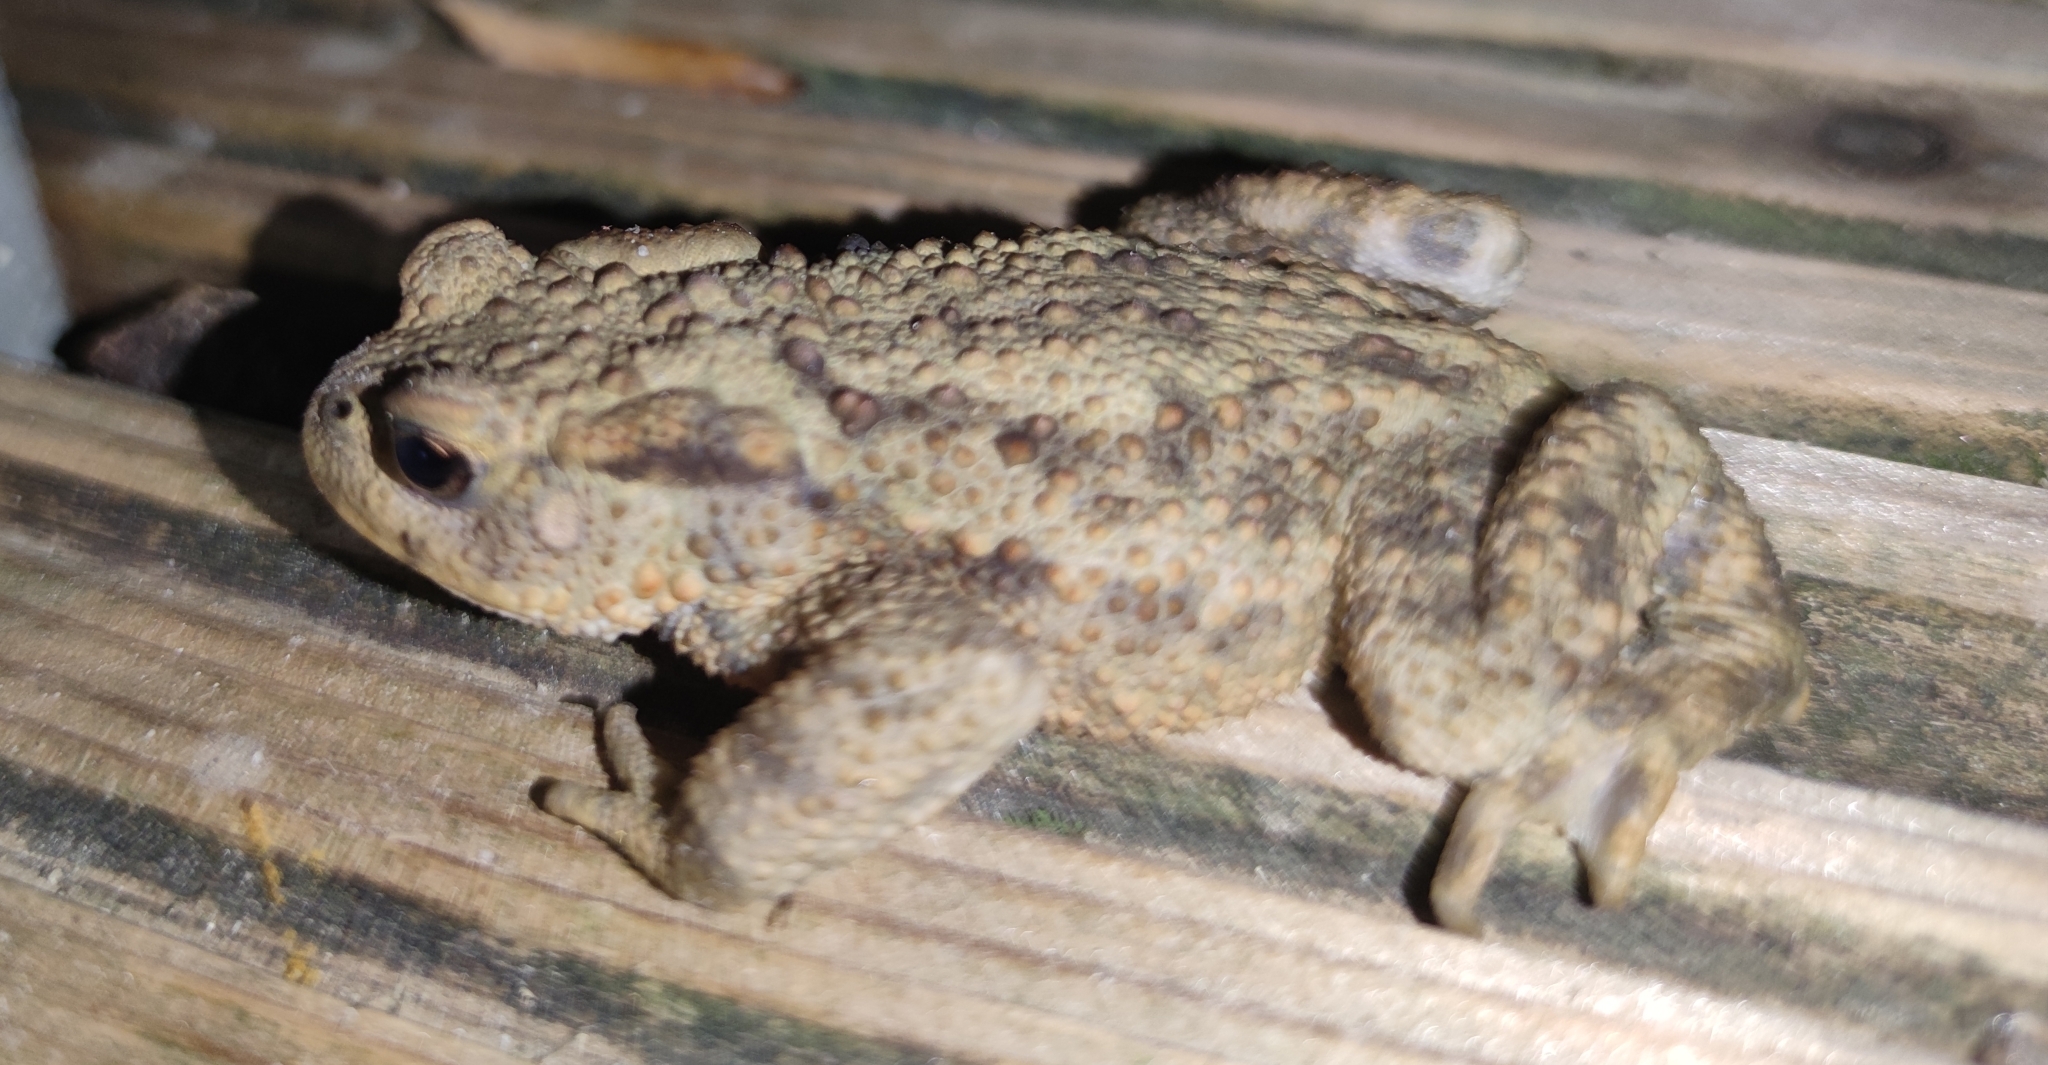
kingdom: Animalia
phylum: Chordata
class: Amphibia
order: Anura
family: Bufonidae
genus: Bufo
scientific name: Bufo bufo
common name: Common toad
